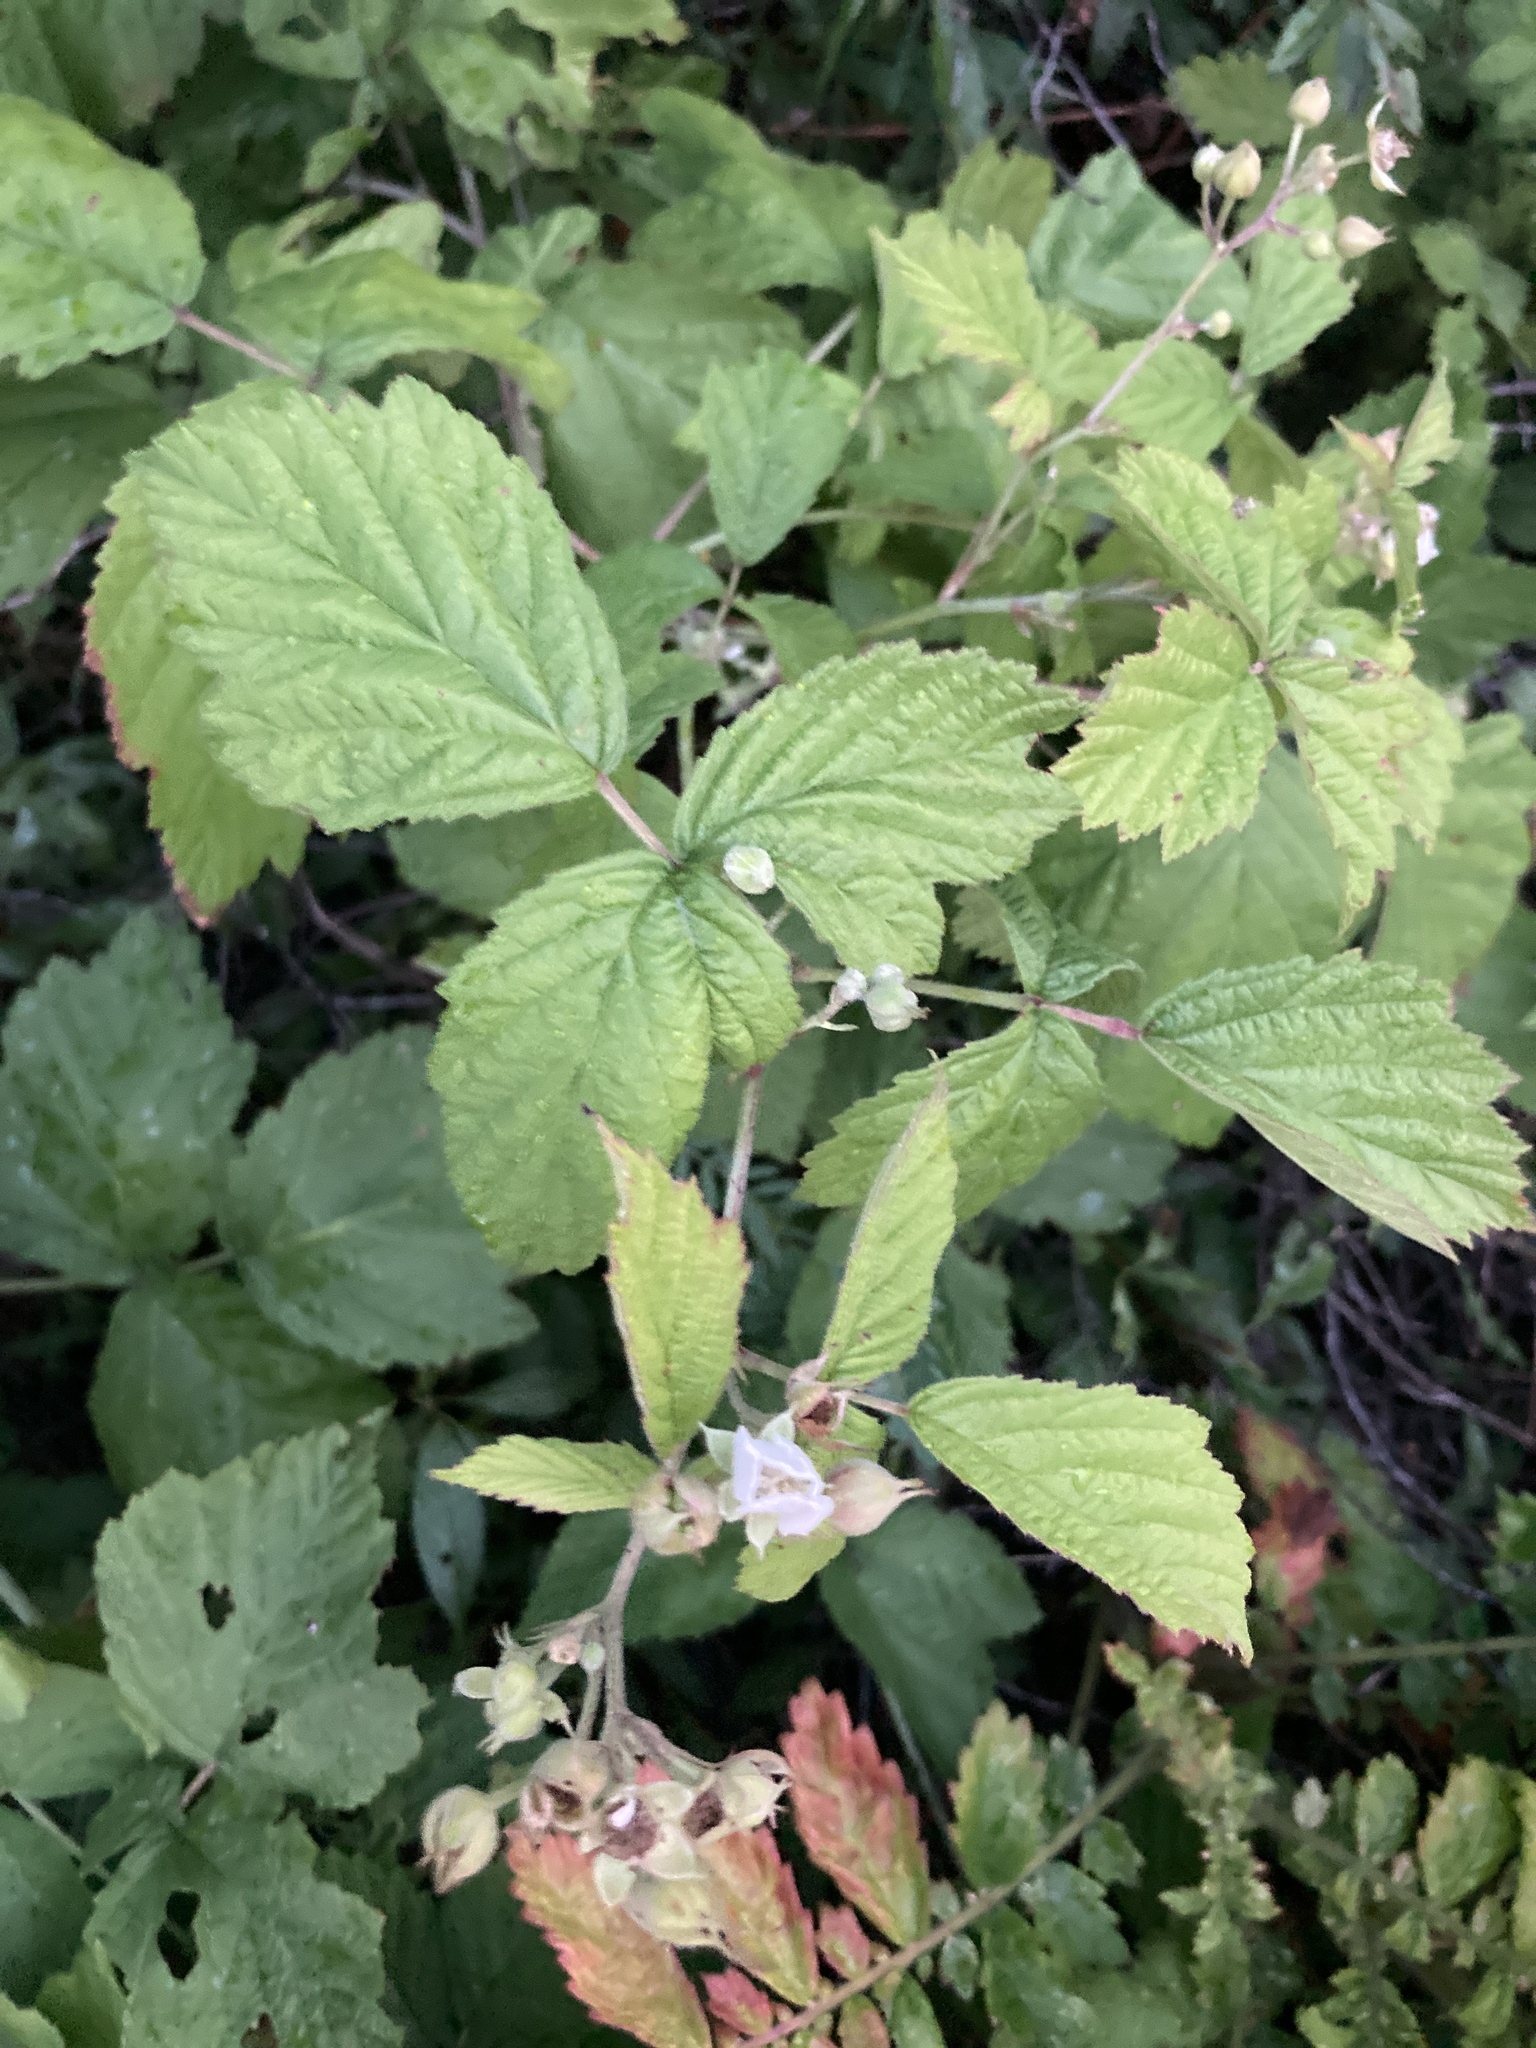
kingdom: Plantae
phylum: Tracheophyta
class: Magnoliopsida
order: Rosales
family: Rosaceae
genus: Rubus
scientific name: Rubus caesius
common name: Dewberry
